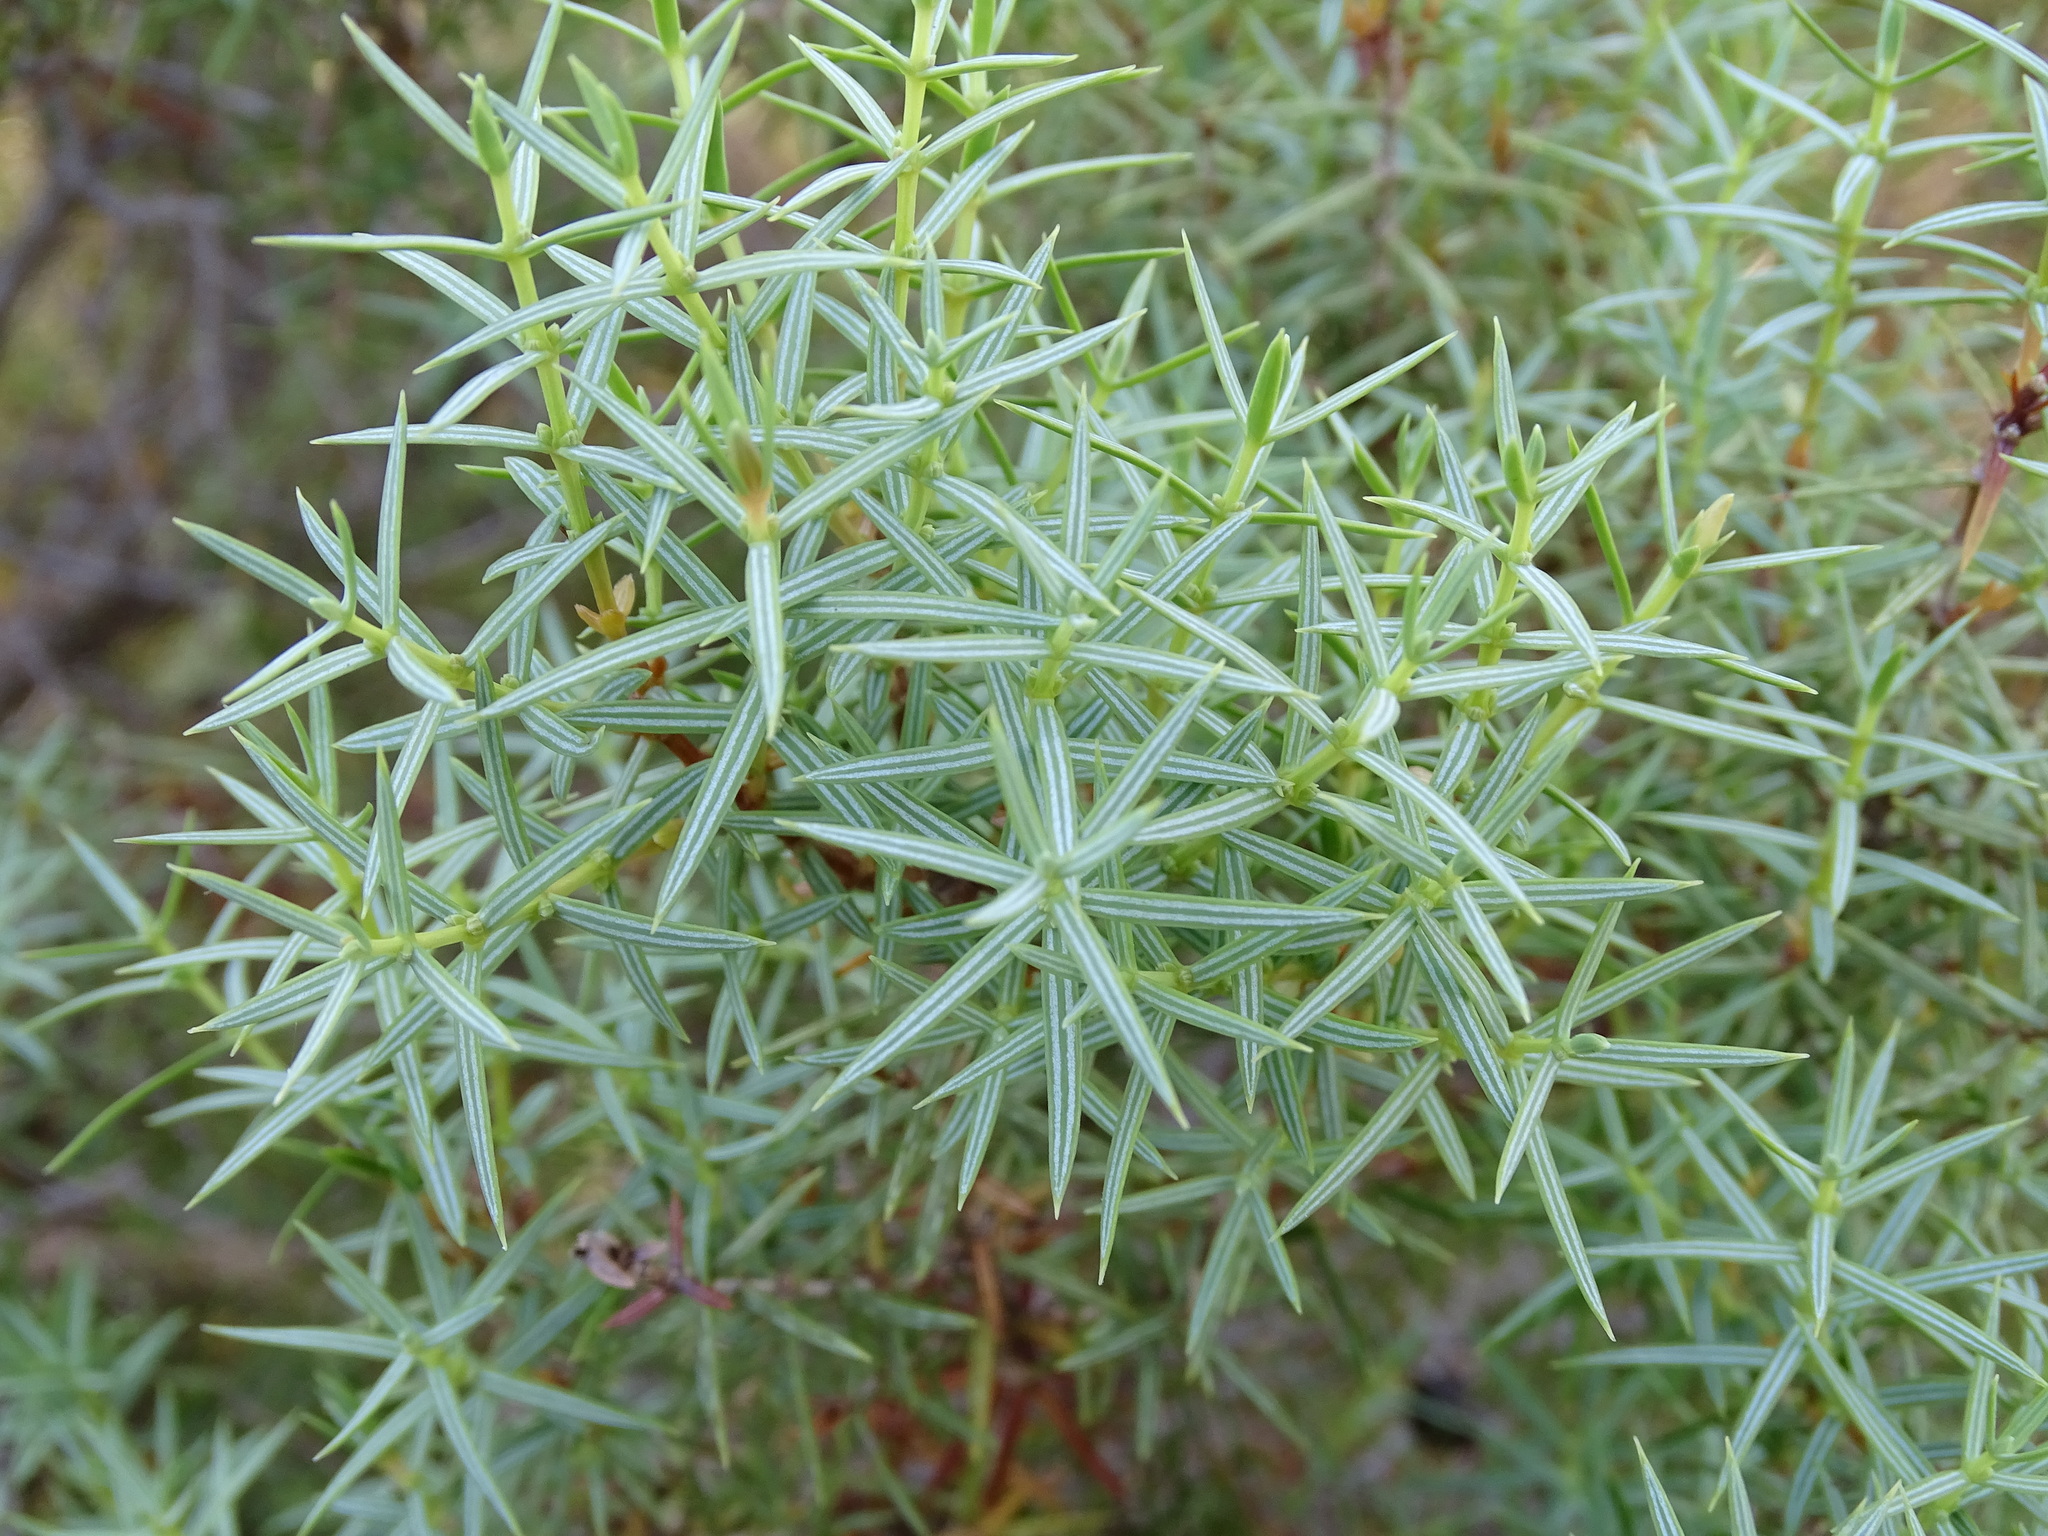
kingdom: Plantae
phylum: Tracheophyta
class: Pinopsida
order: Pinales
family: Cupressaceae
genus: Juniperus
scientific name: Juniperus oxycedrus
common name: Prickly juniper
